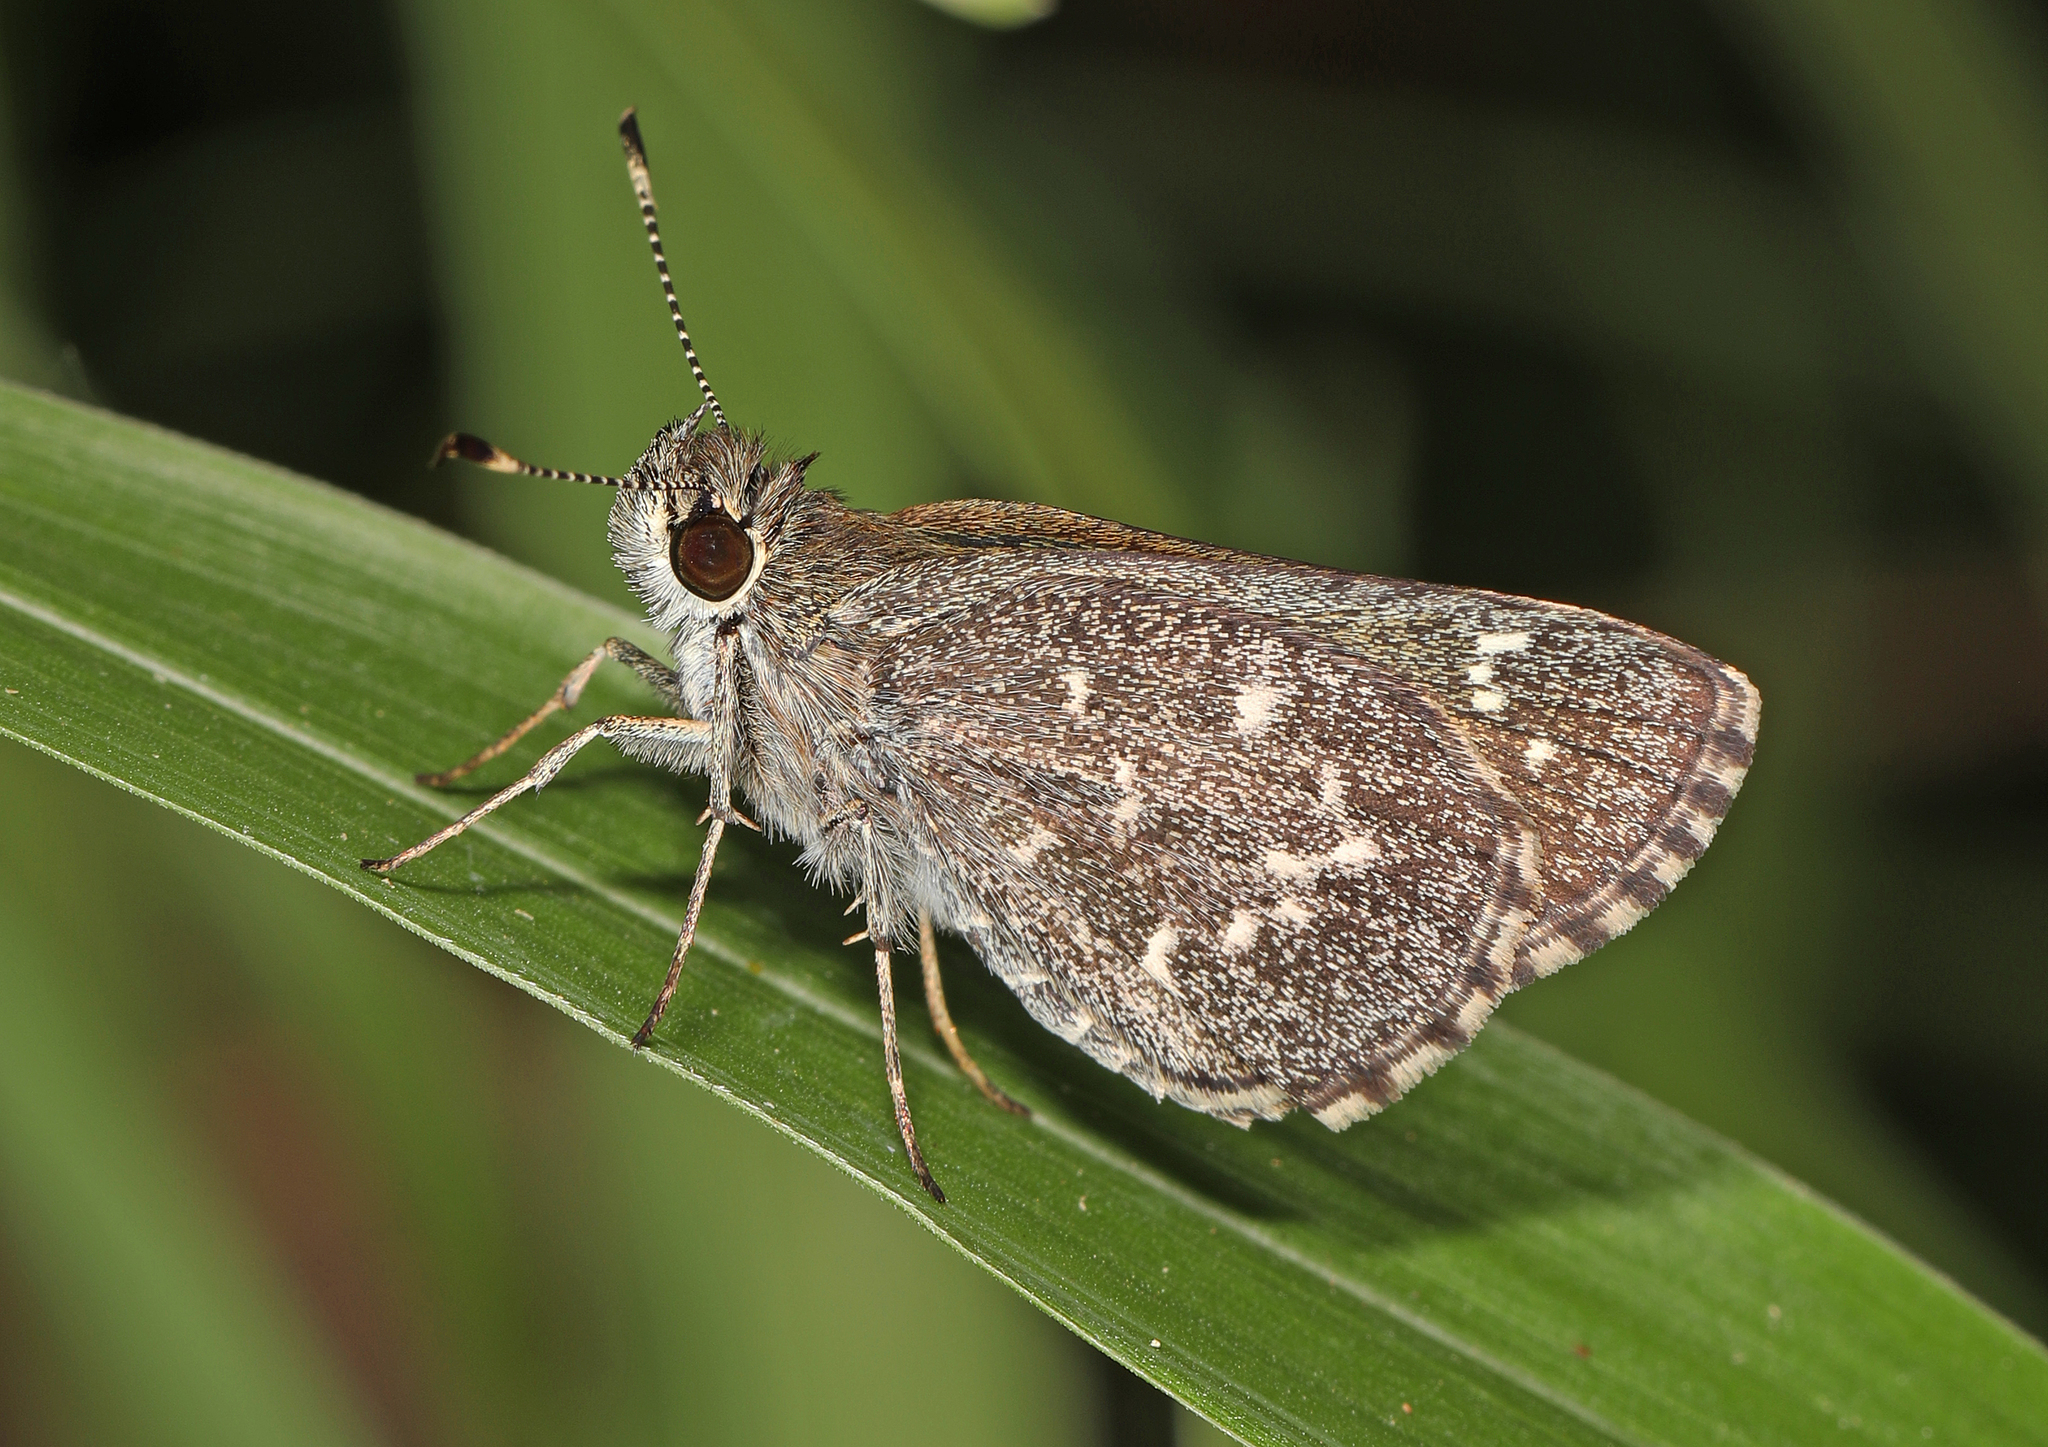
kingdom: Animalia
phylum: Arthropoda
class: Insecta
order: Lepidoptera
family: Hesperiidae
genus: Mastor
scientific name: Mastor celia
